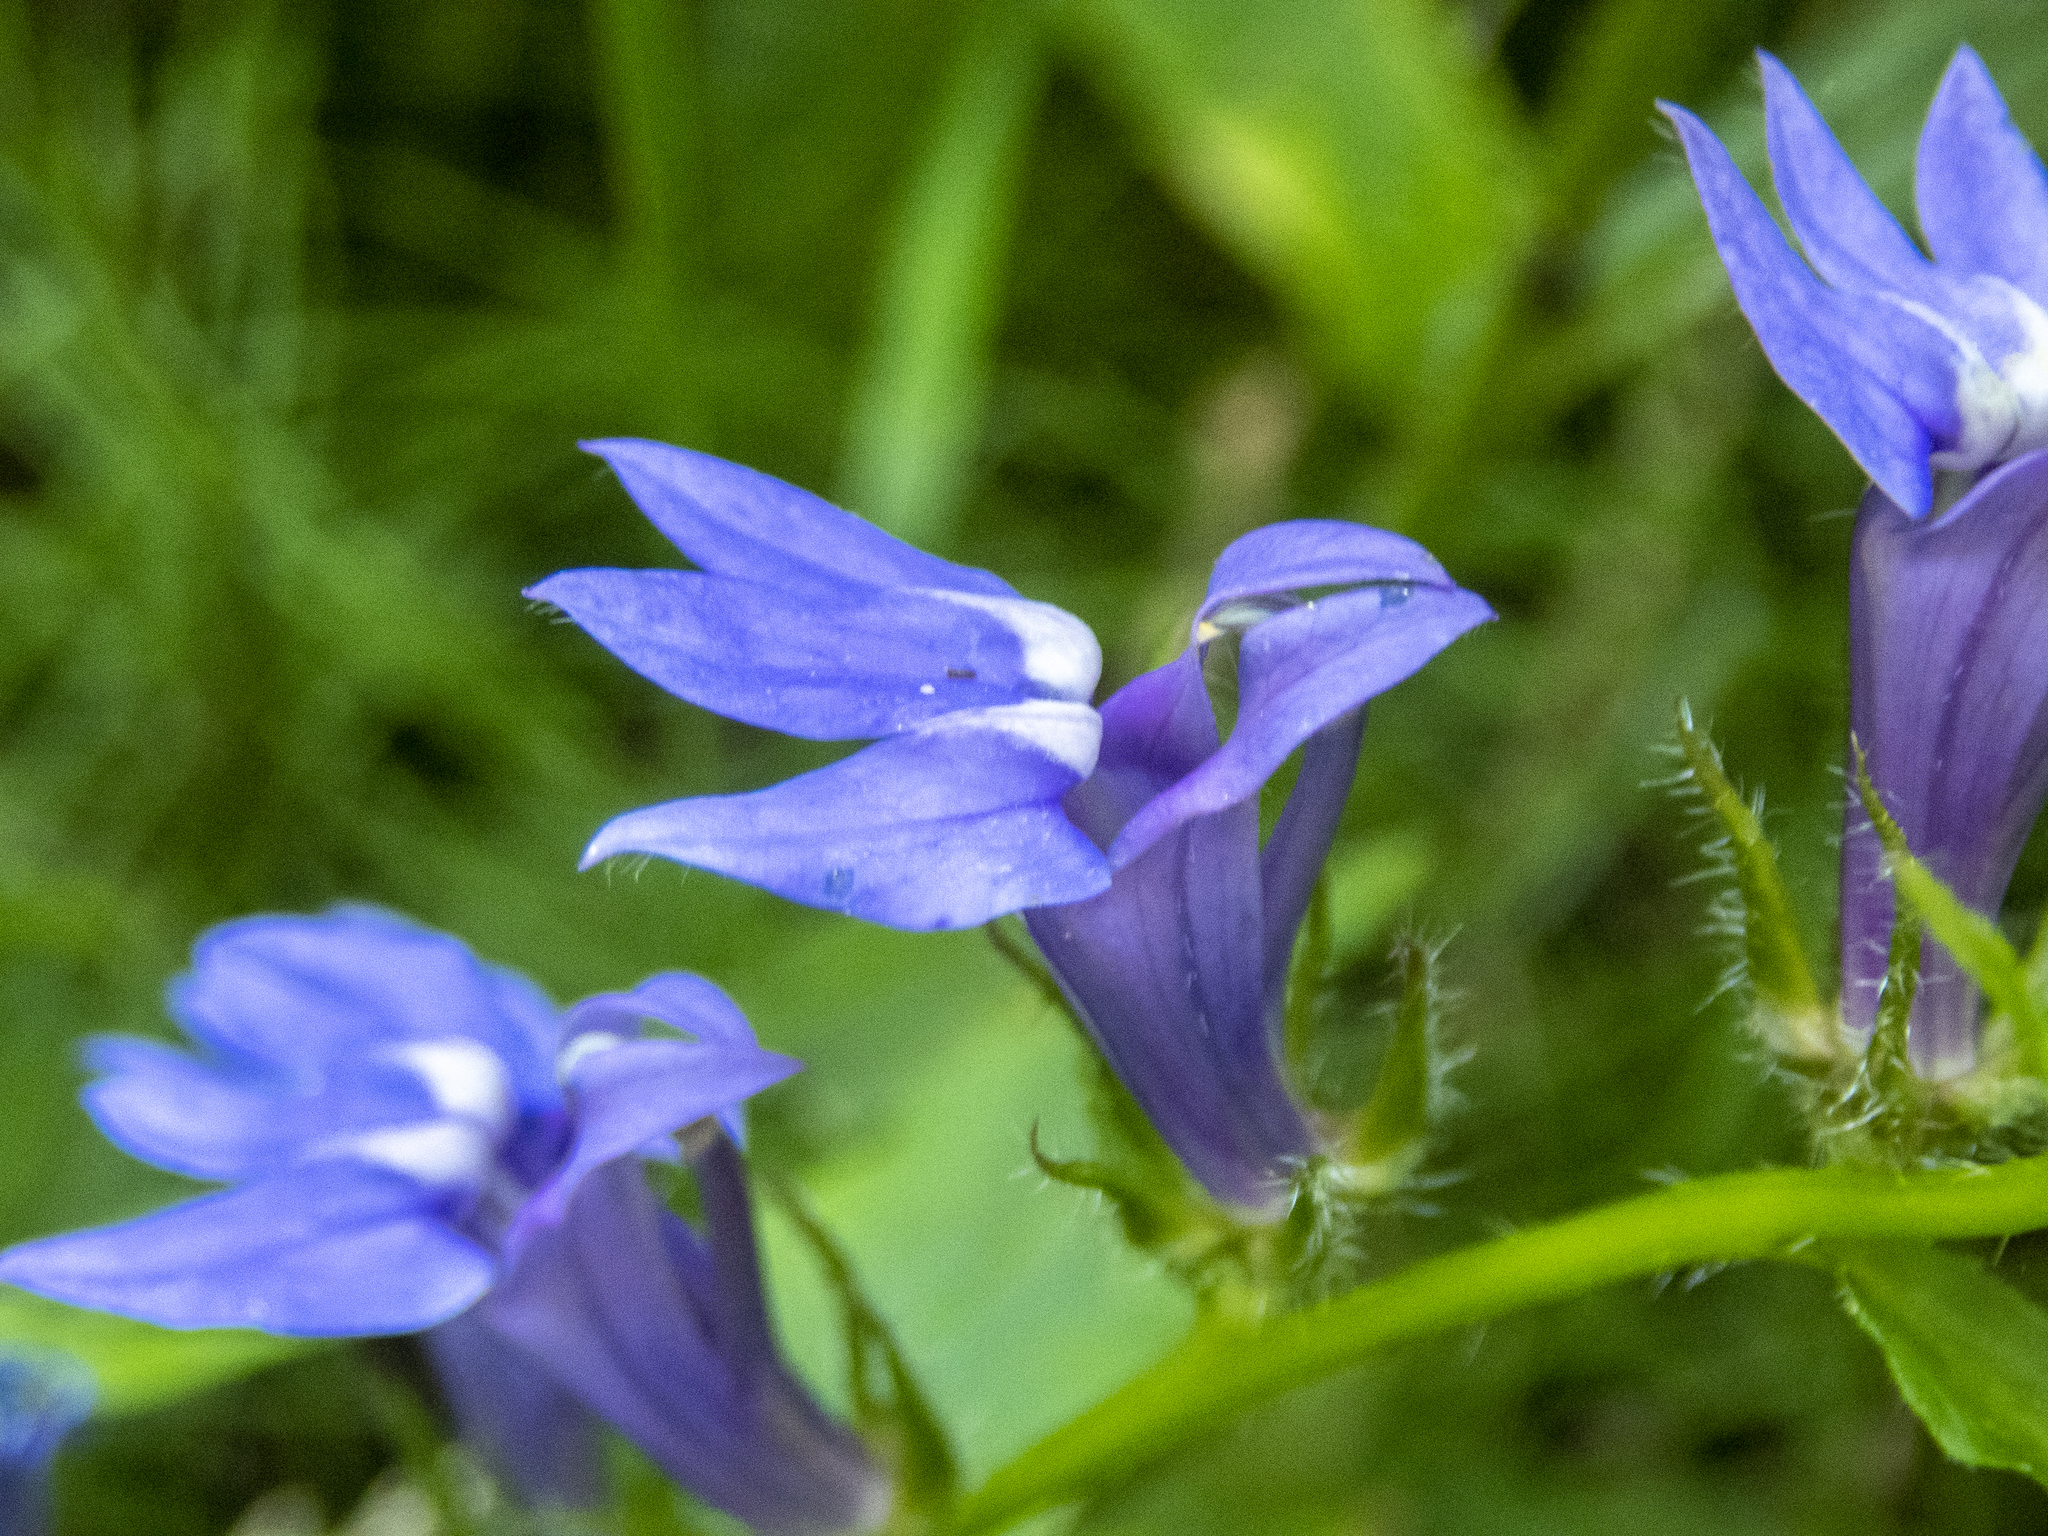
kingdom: Plantae
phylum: Tracheophyta
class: Magnoliopsida
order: Asterales
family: Campanulaceae
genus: Lobelia
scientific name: Lobelia siphilitica
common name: Great lobelia
